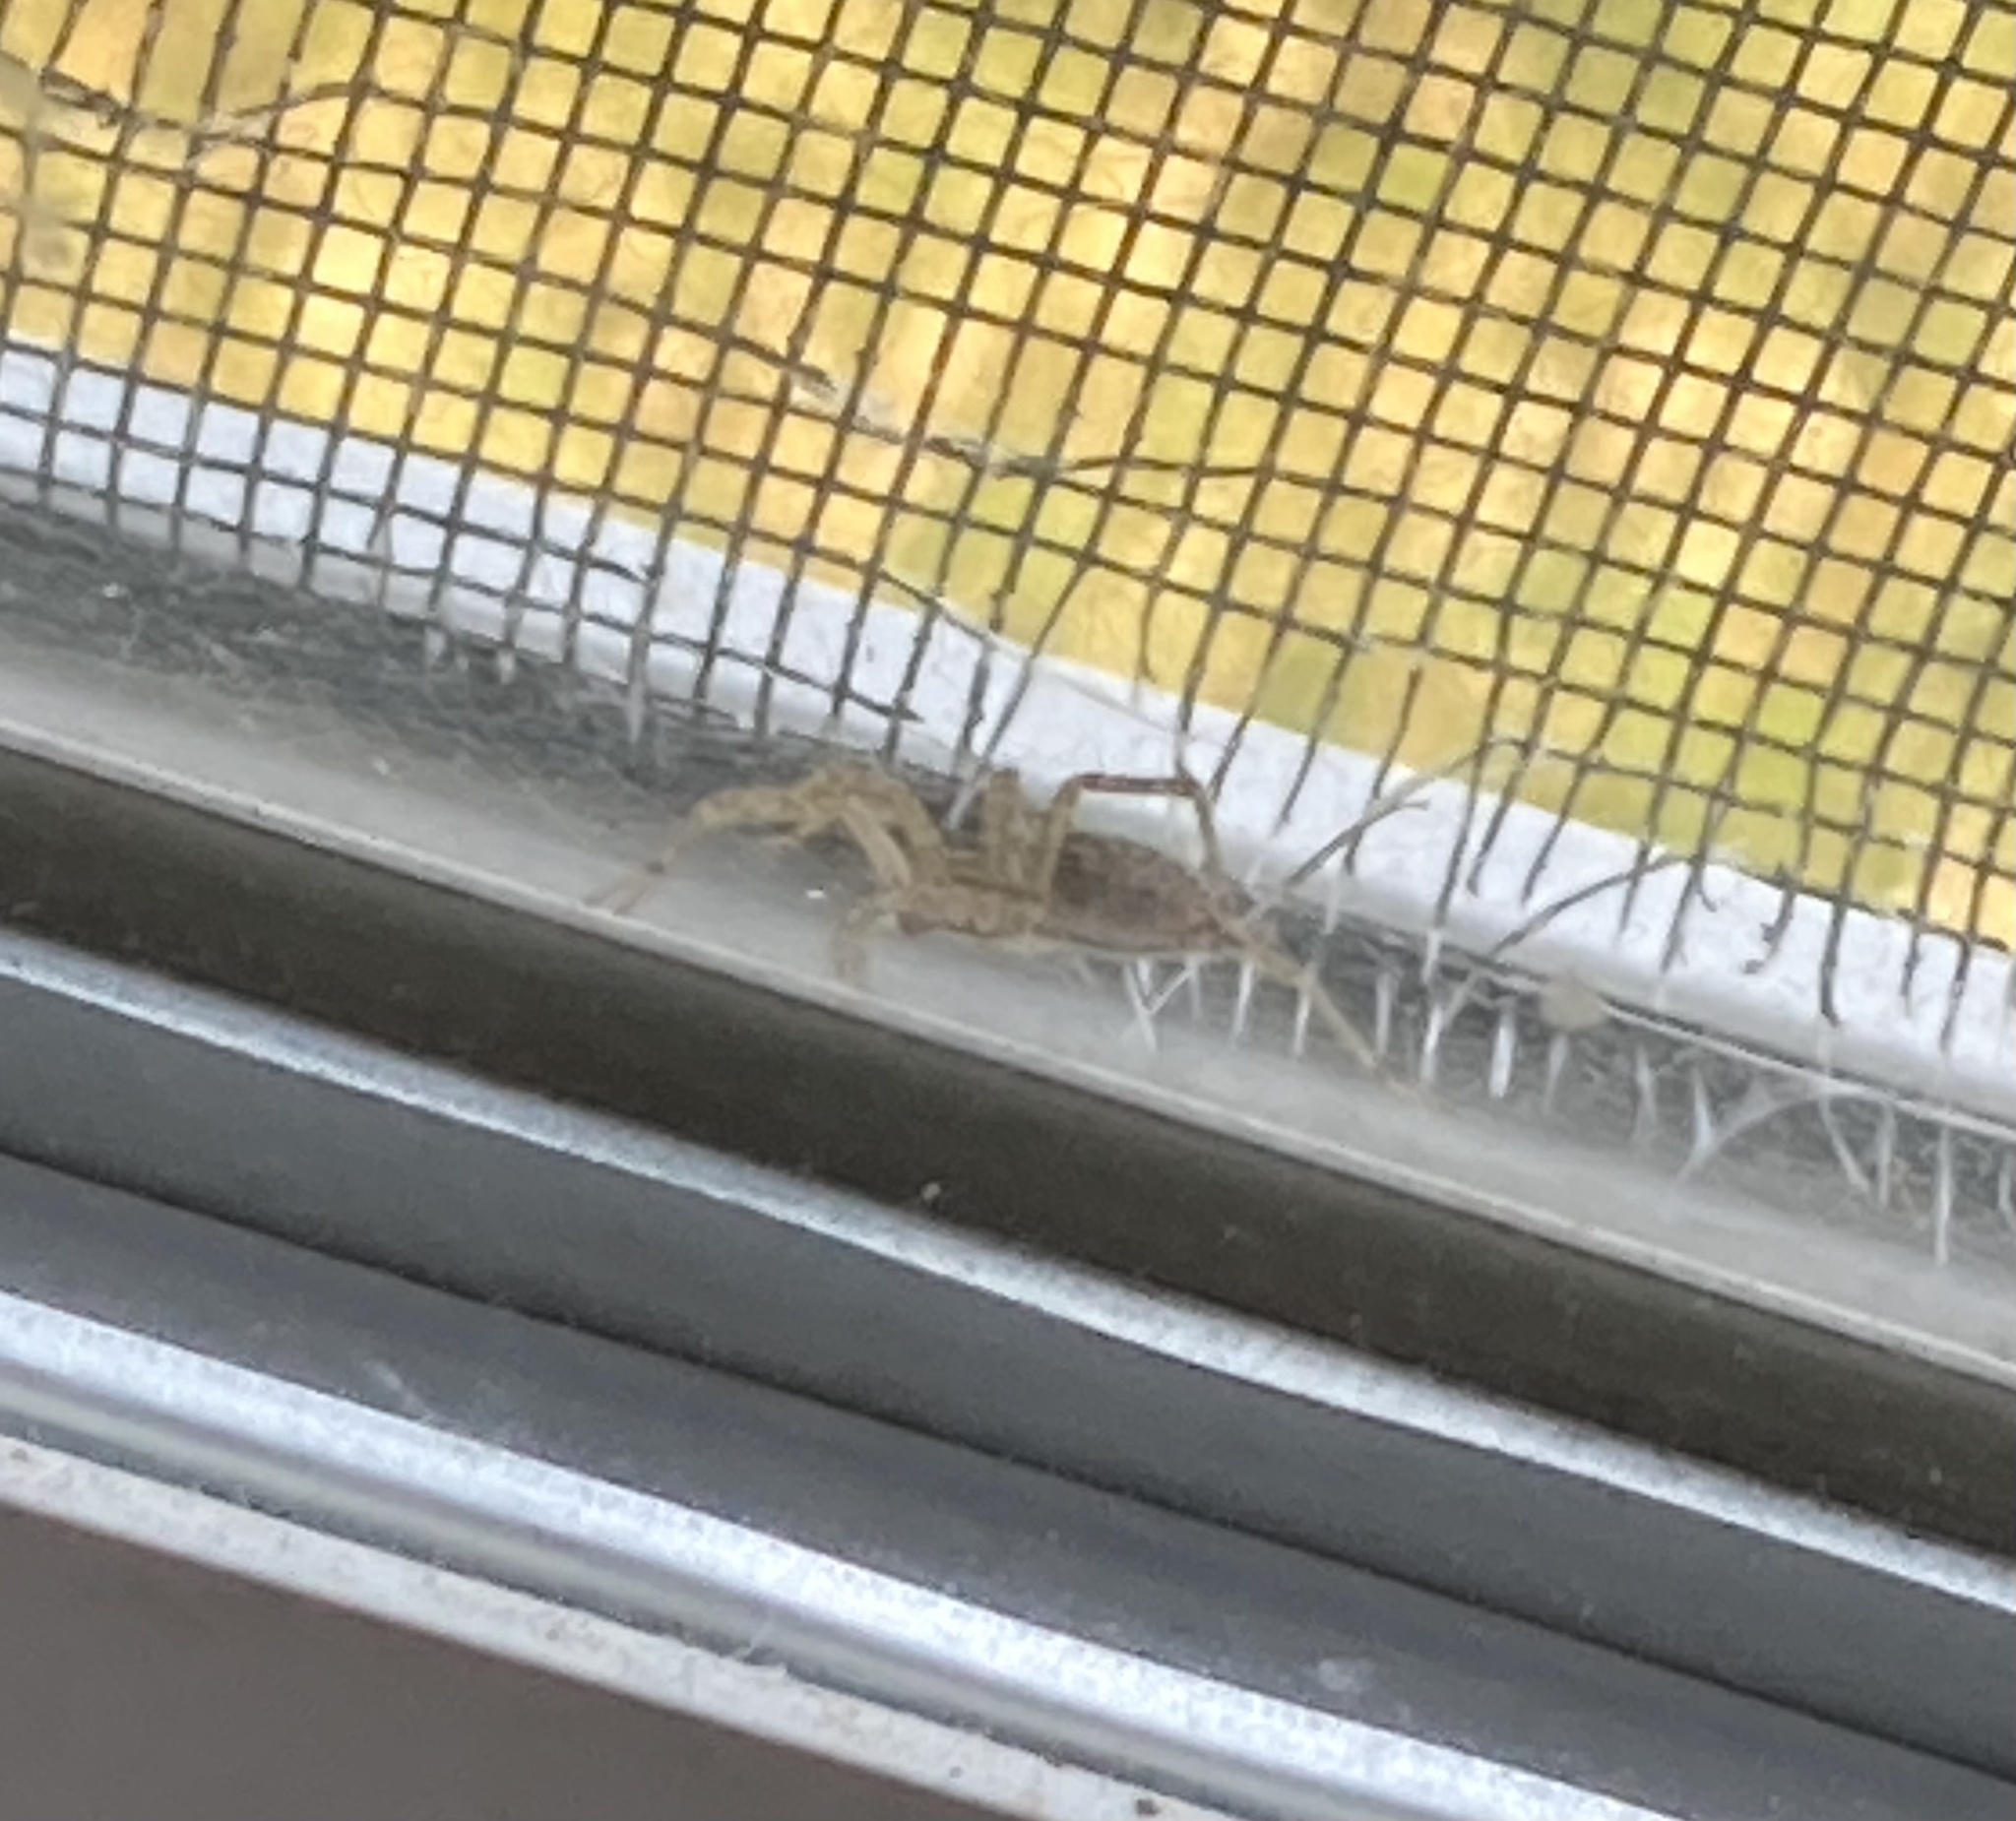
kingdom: Animalia
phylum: Arthropoda
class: Arachnida
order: Araneae
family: Agelenidae
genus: Agelenopsis
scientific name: Agelenopsis
